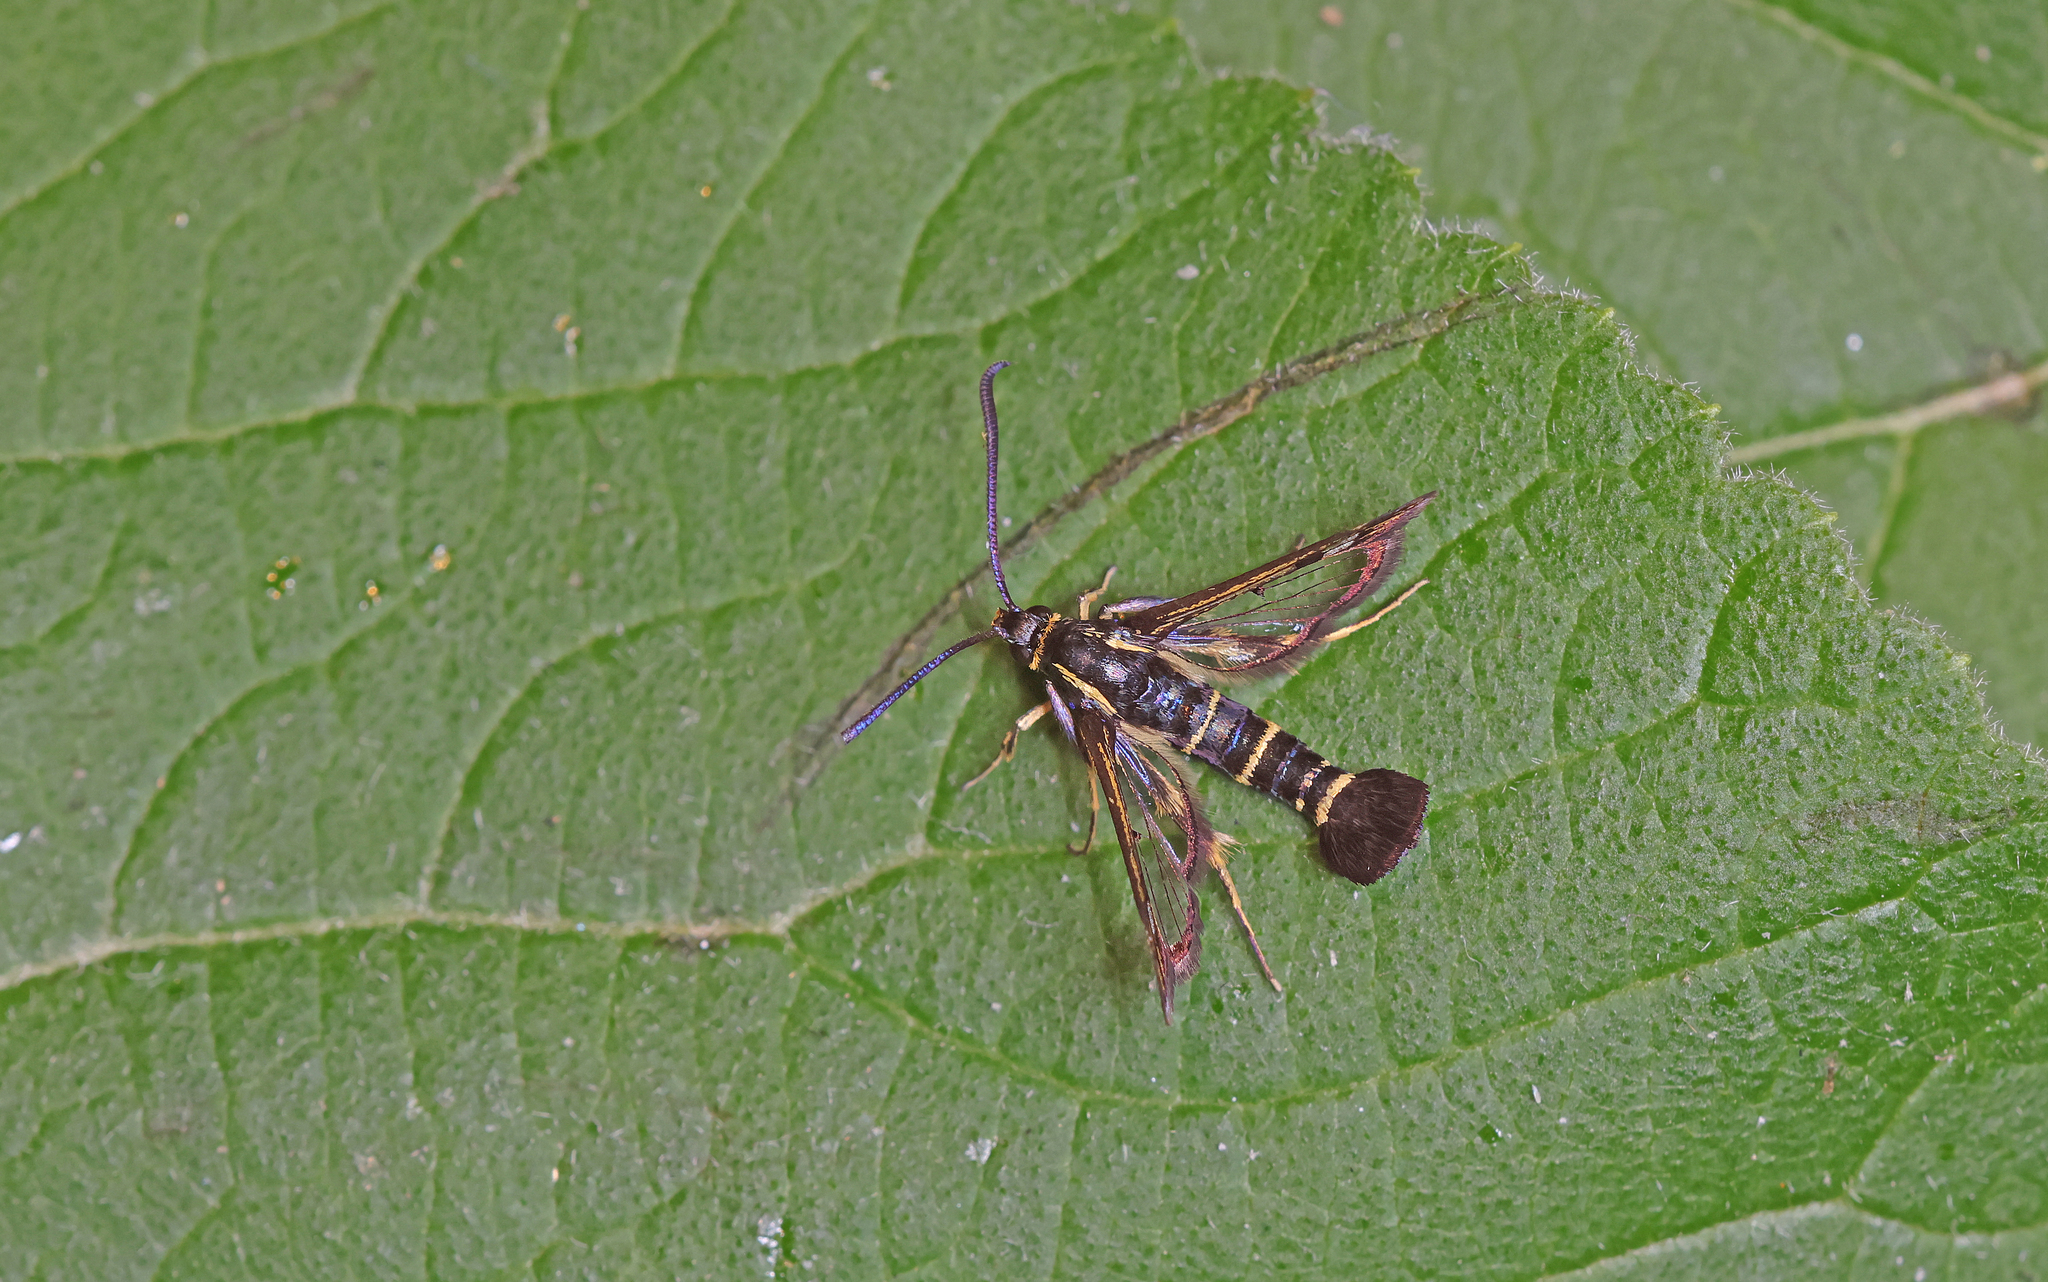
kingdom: Animalia
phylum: Arthropoda
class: Insecta
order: Lepidoptera
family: Sesiidae
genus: Synanthedon
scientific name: Synanthedon tipuliformis
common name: Currant clearwing
